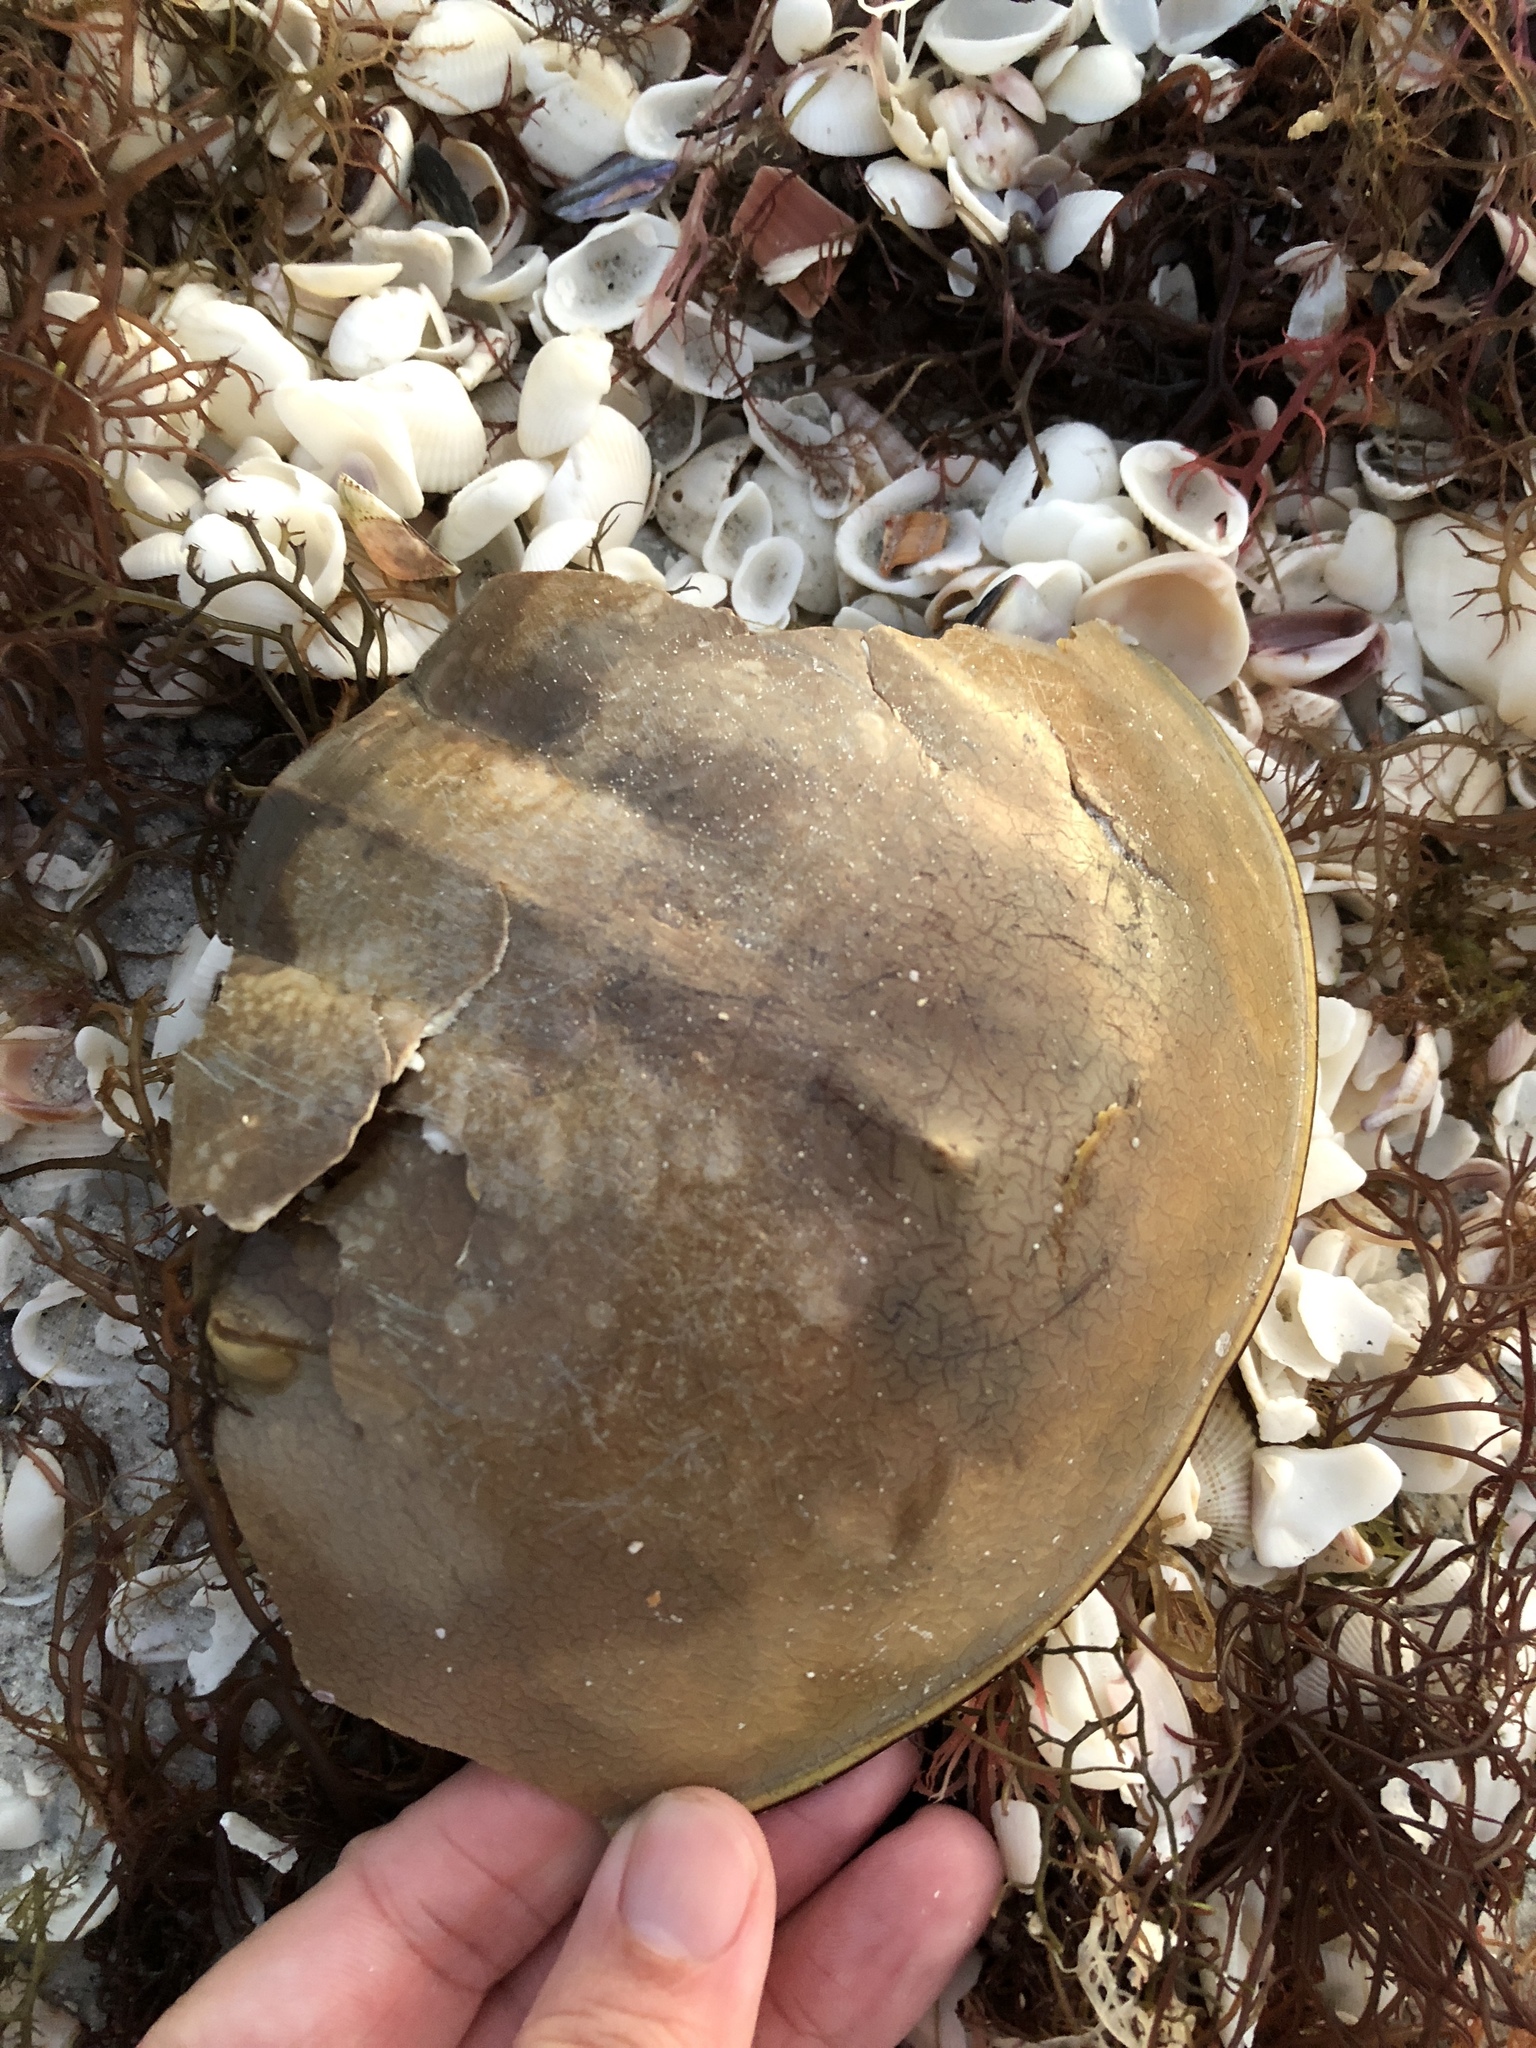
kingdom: Animalia
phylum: Arthropoda
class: Merostomata
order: Xiphosurida
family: Limulidae
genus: Limulus
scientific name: Limulus polyphemus
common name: Horseshoe crab
